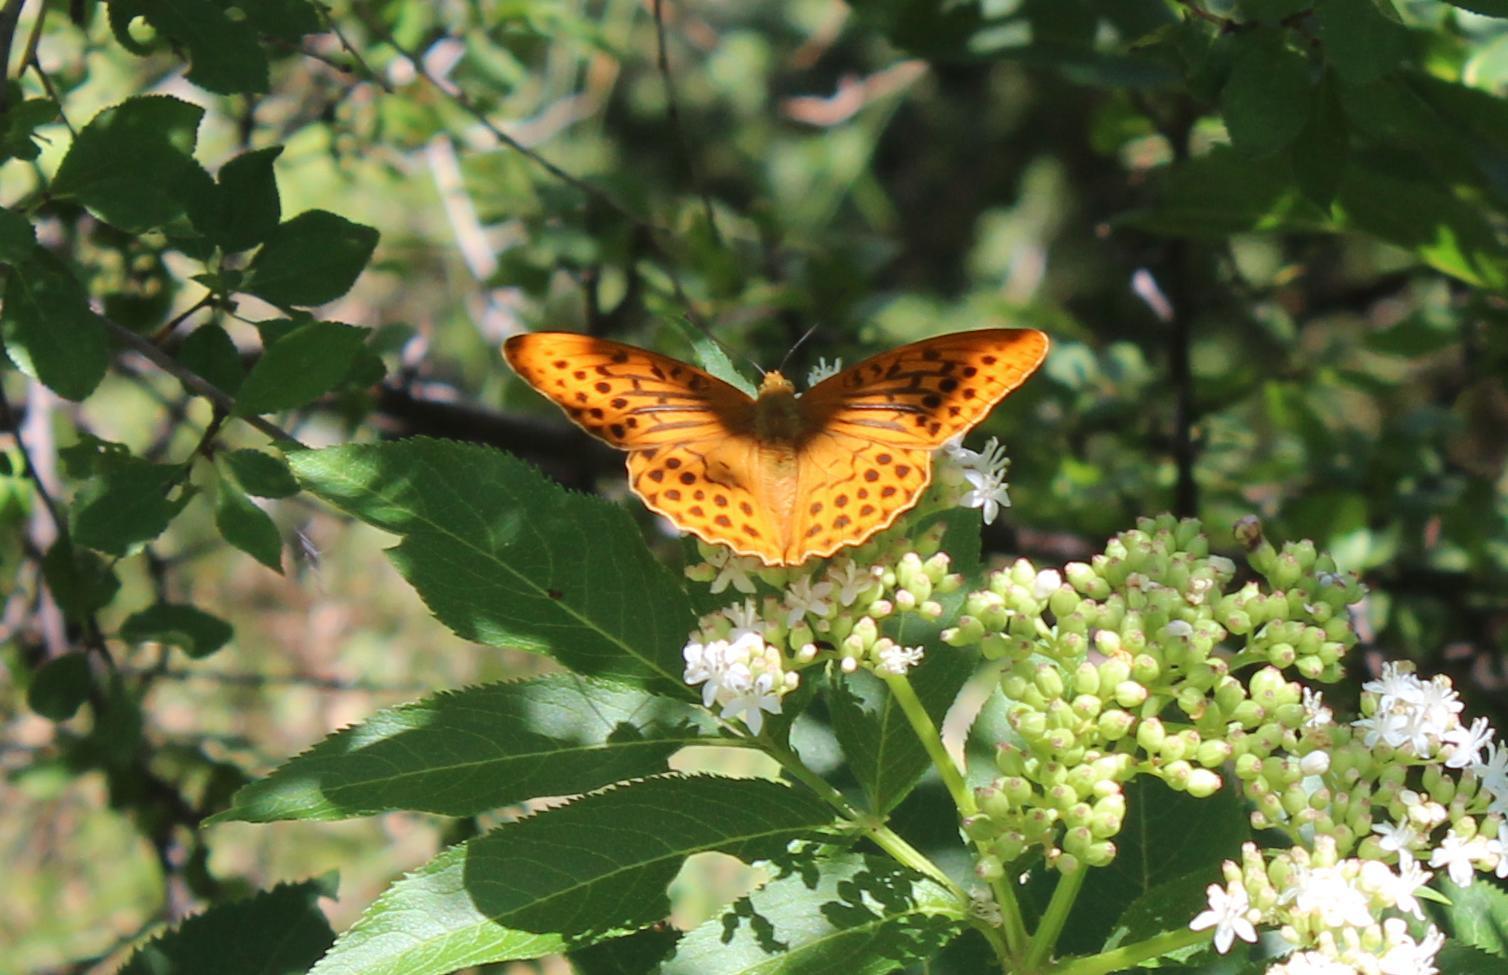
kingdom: Animalia
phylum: Arthropoda
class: Insecta
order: Lepidoptera
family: Nymphalidae
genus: Argynnis
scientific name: Argynnis paphia
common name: Silver-washed fritillary
